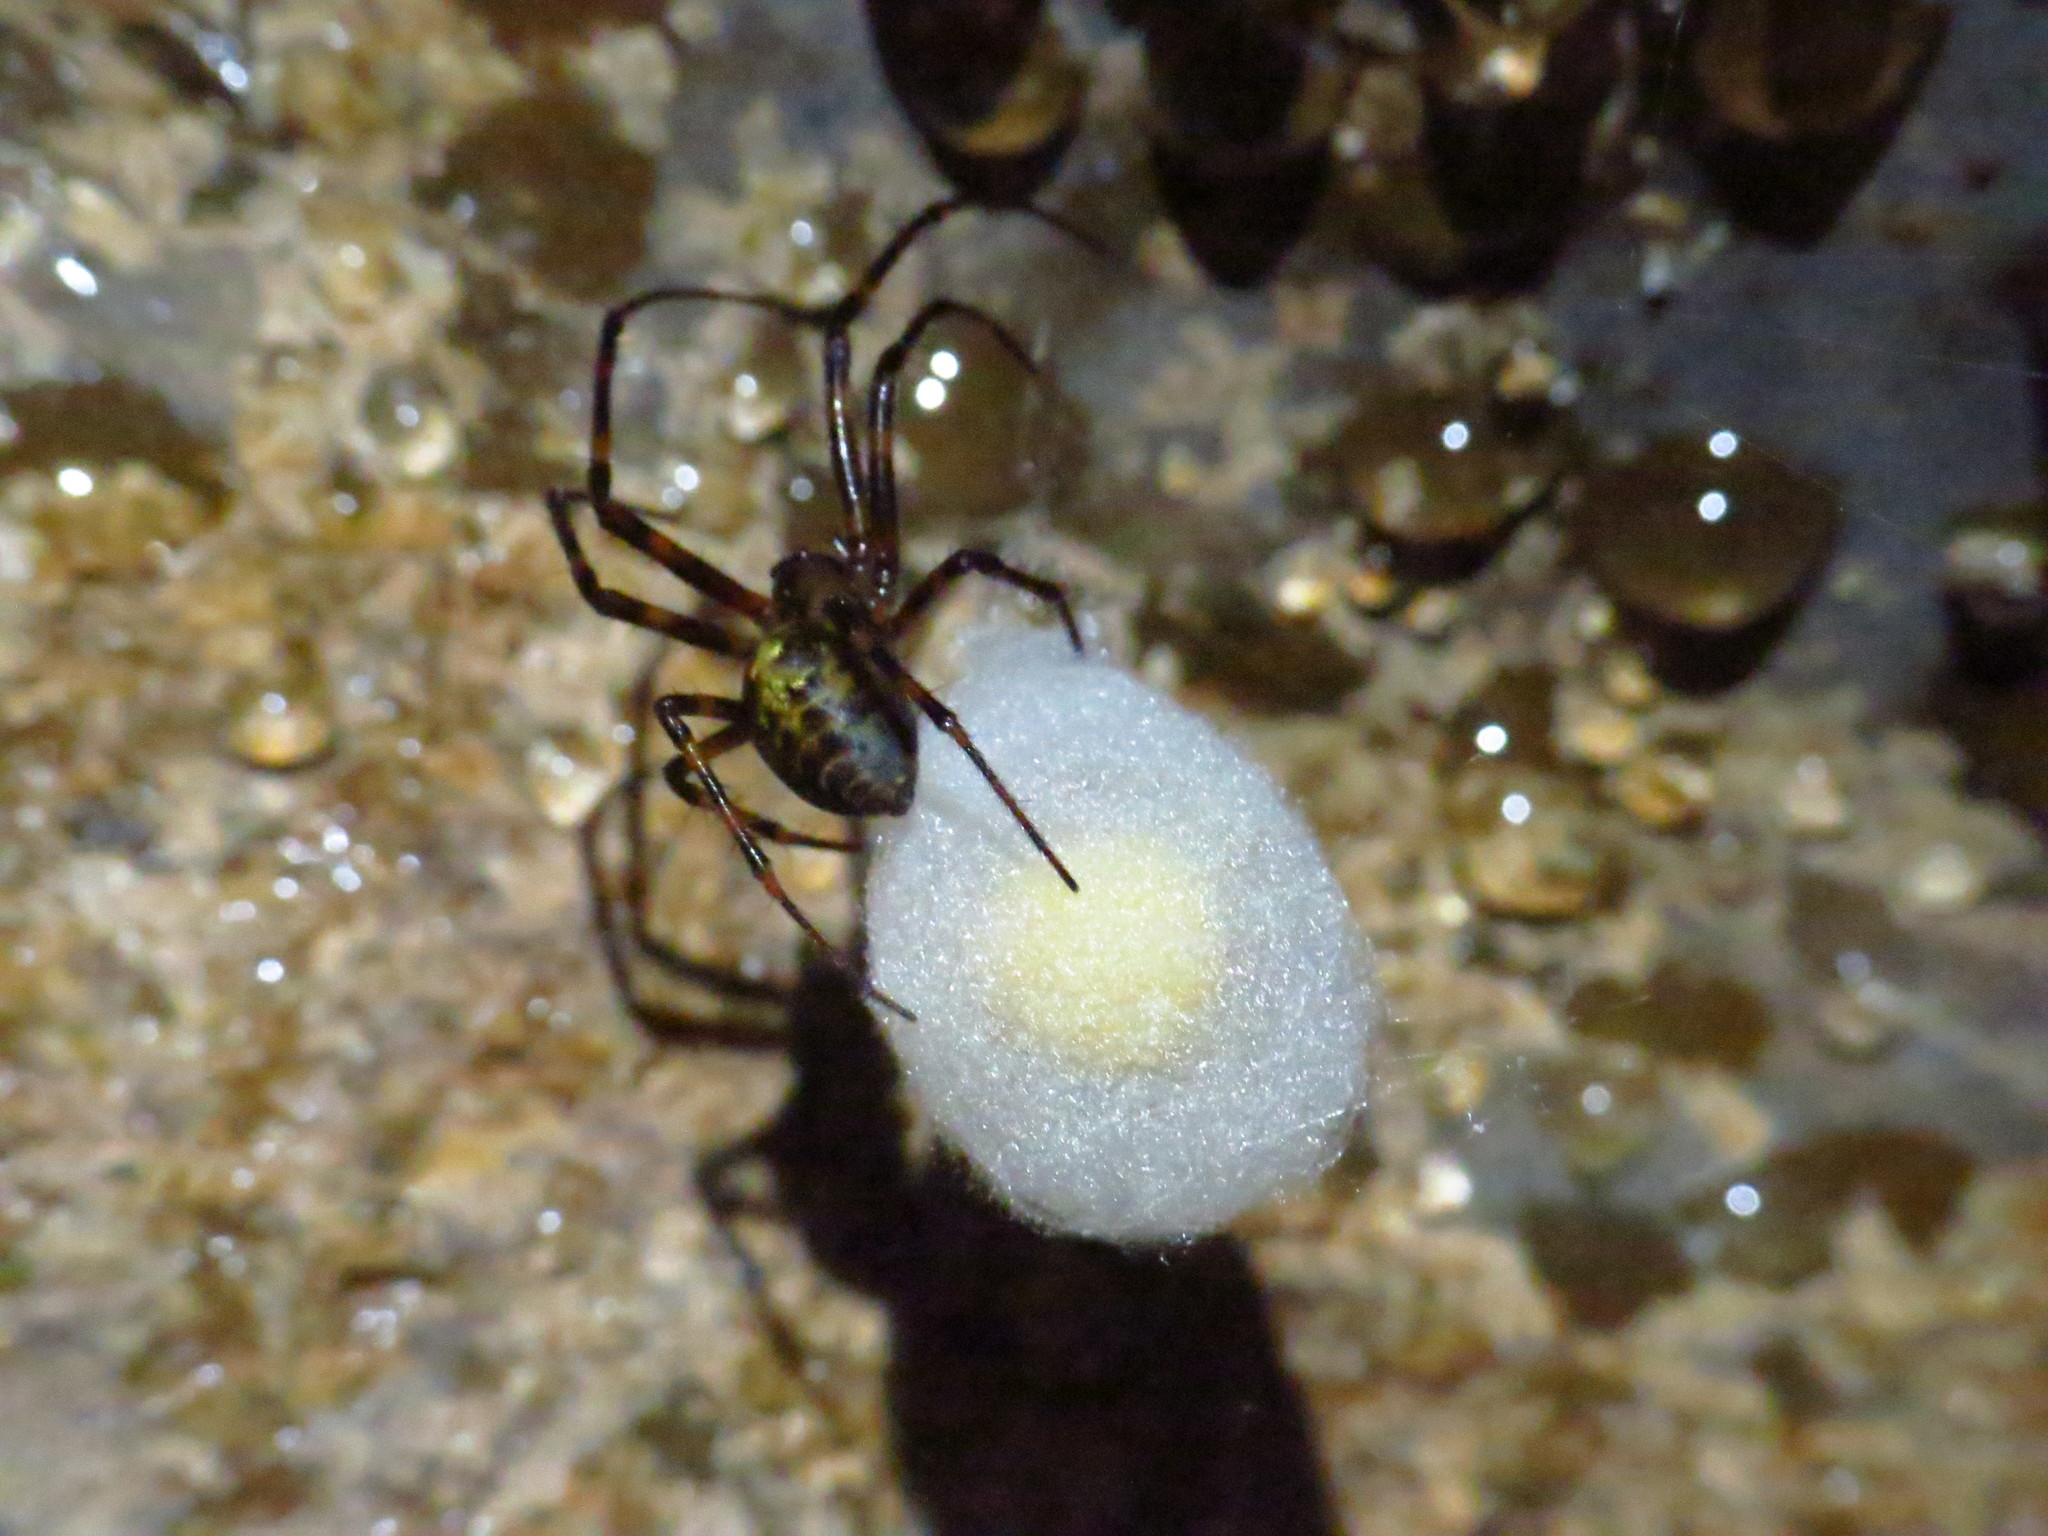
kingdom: Animalia
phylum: Arthropoda
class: Arachnida
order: Araneae
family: Tetragnathidae
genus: Meta
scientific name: Meta ovalis
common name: Eastern cave long-jawed spider
